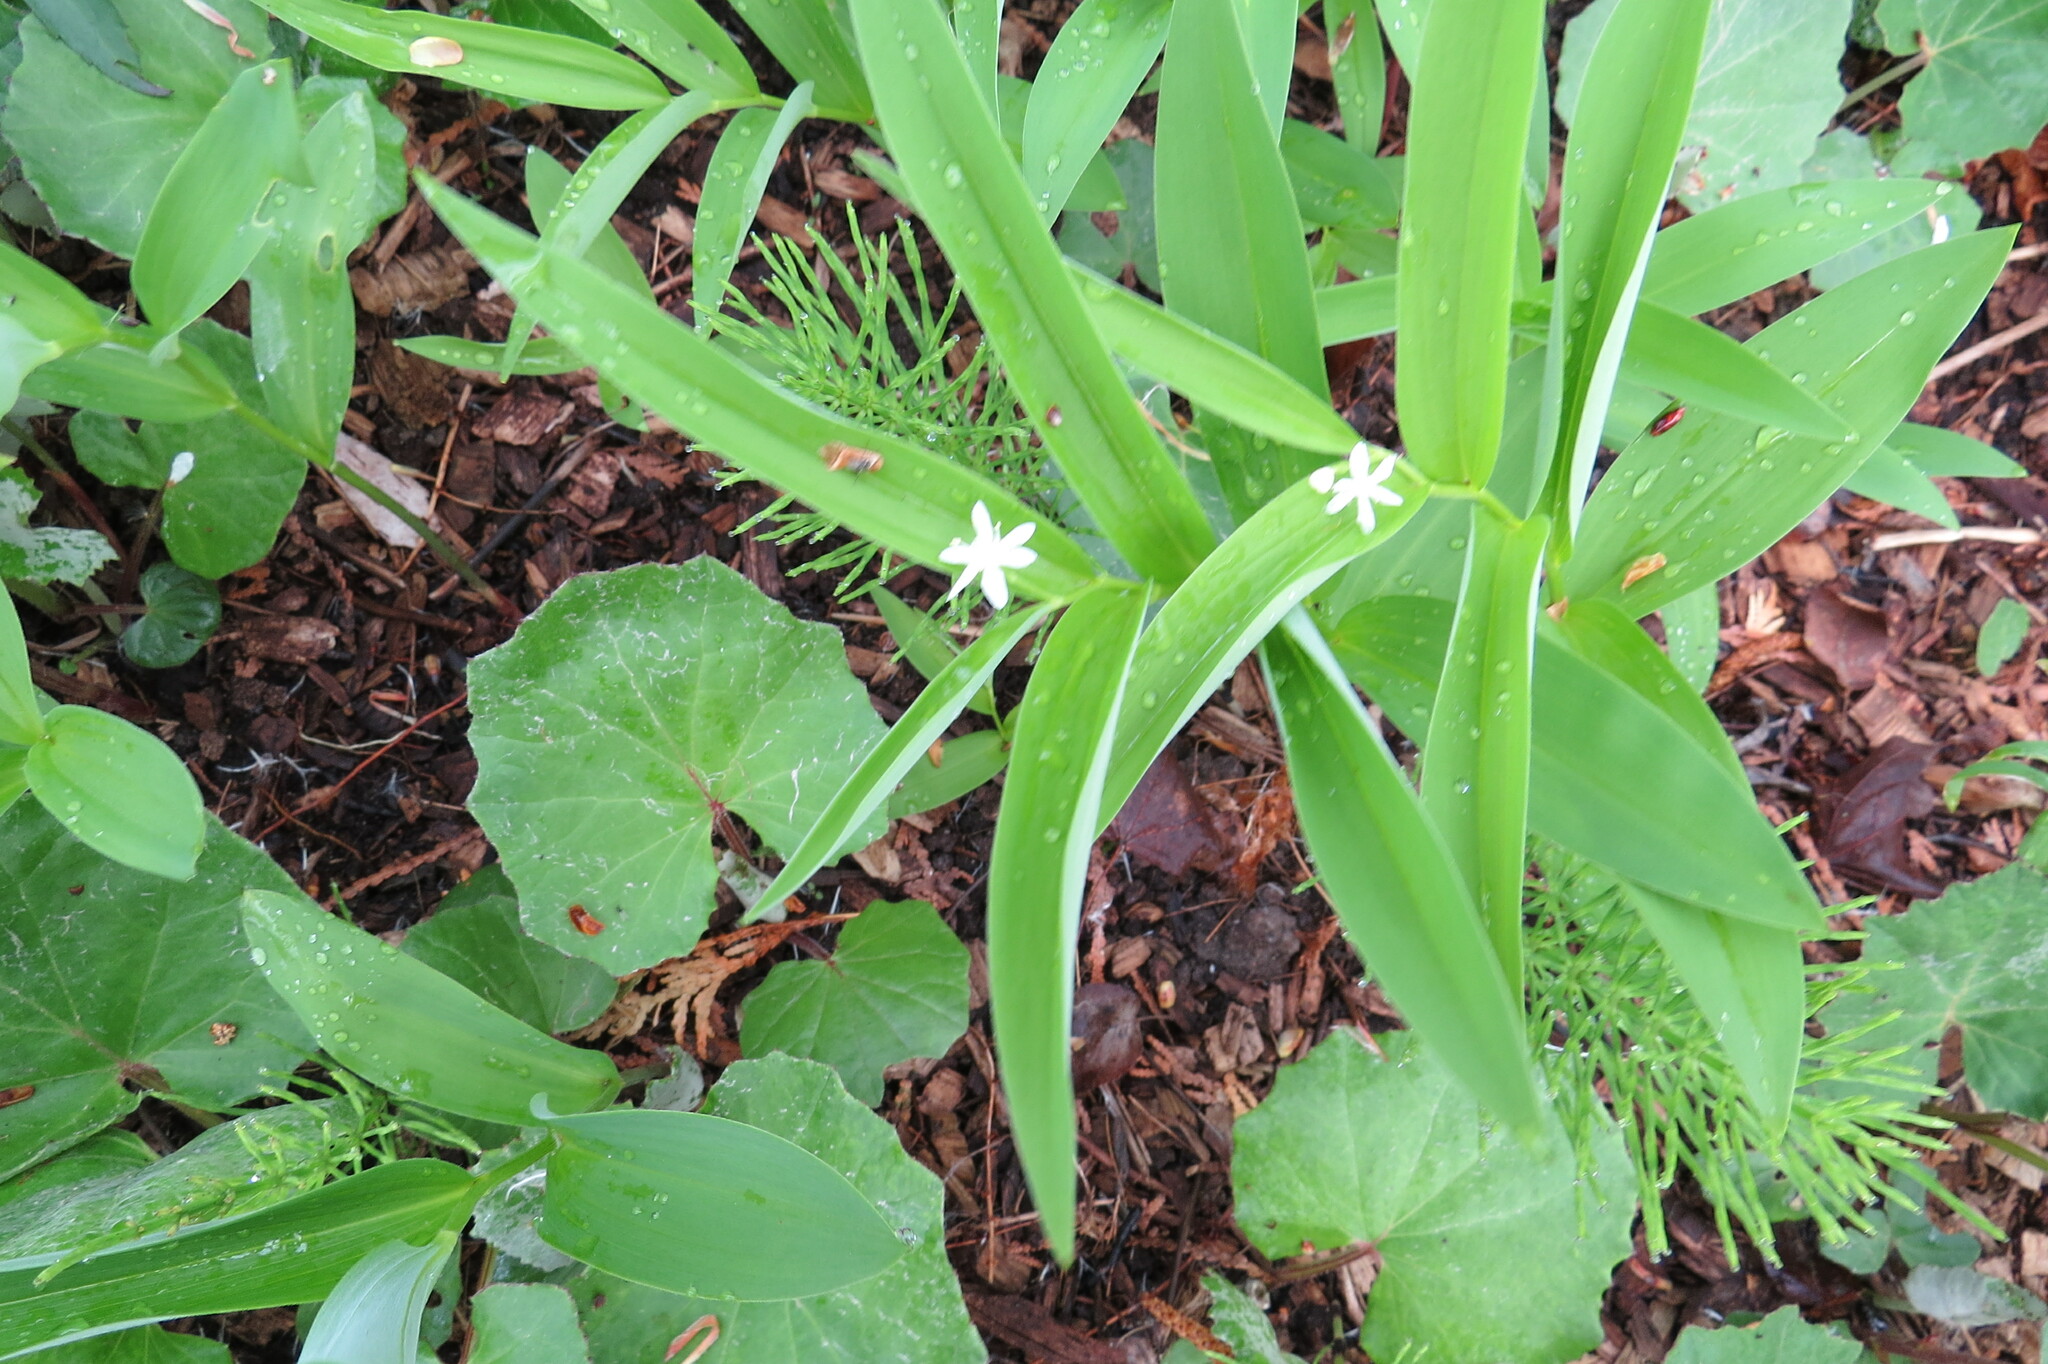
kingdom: Plantae
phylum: Tracheophyta
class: Liliopsida
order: Asparagales
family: Asparagaceae
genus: Maianthemum
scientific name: Maianthemum stellatum
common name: Little false solomon's seal
